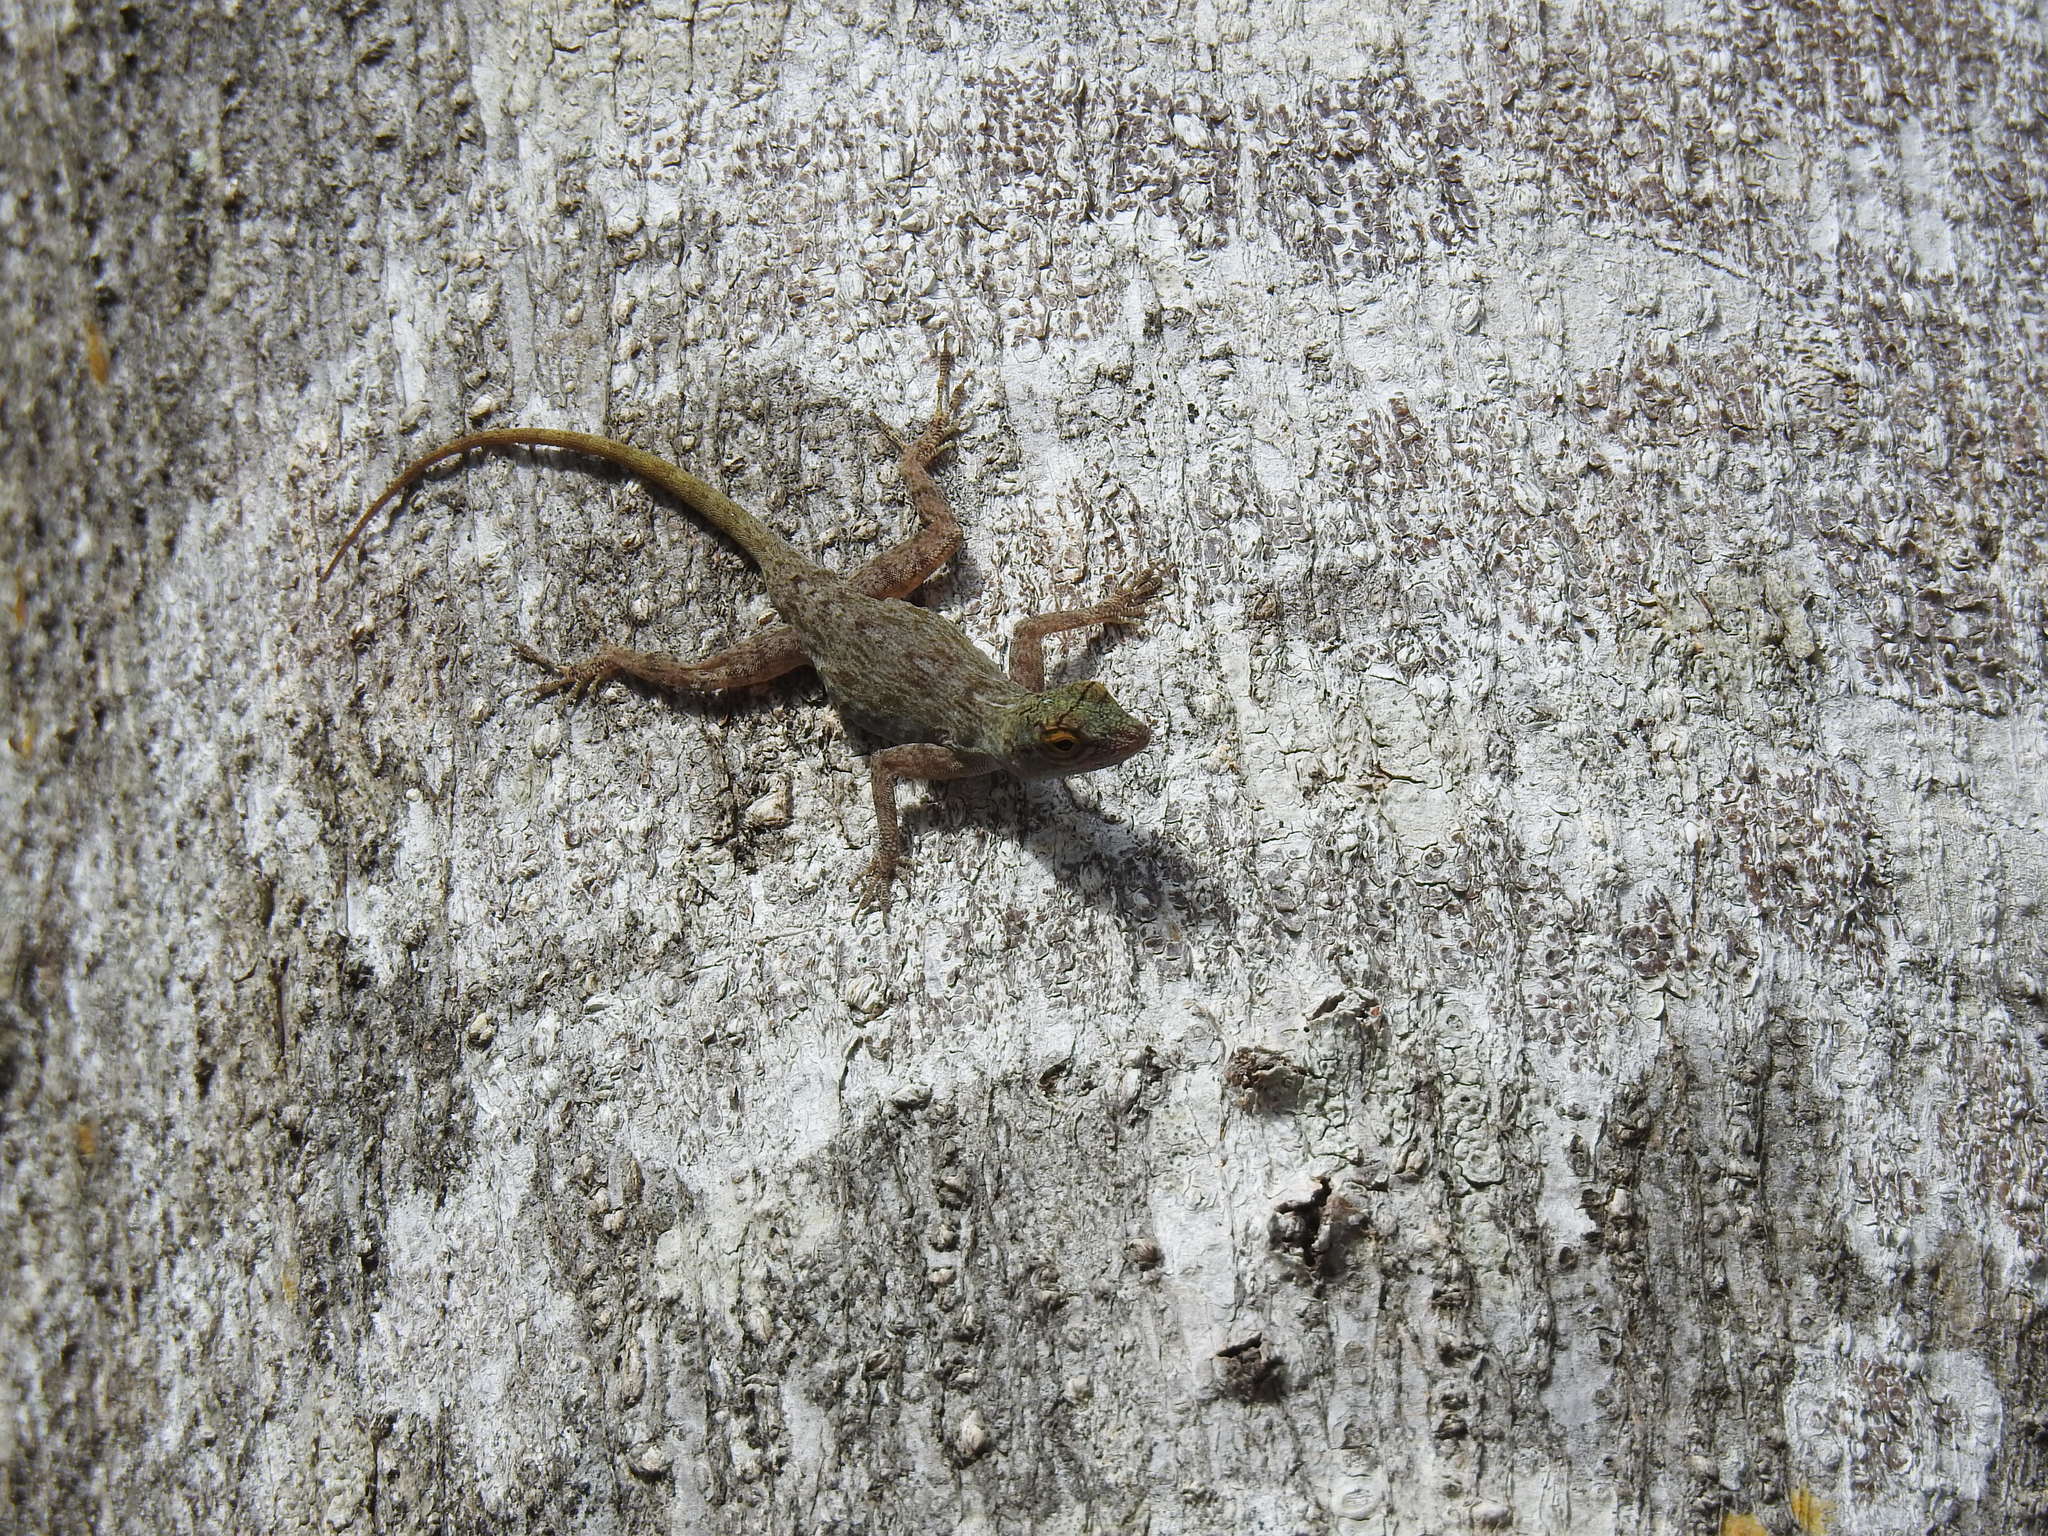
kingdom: Animalia
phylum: Chordata
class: Squamata
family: Dactyloidae
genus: Anolis
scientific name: Anolis distichus
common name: Bark anole
